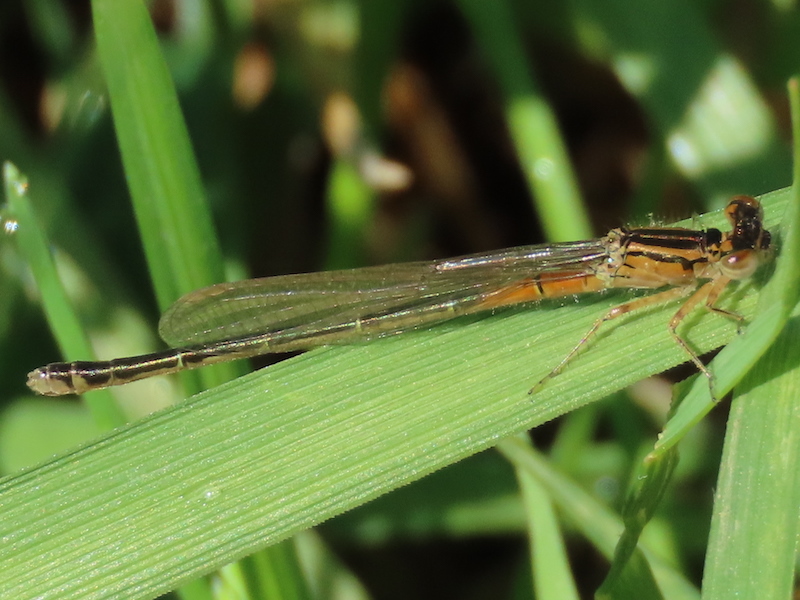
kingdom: Animalia
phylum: Arthropoda
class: Insecta
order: Odonata
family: Coenagrionidae
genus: Ischnura
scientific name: Ischnura verticalis
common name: Eastern forktail
